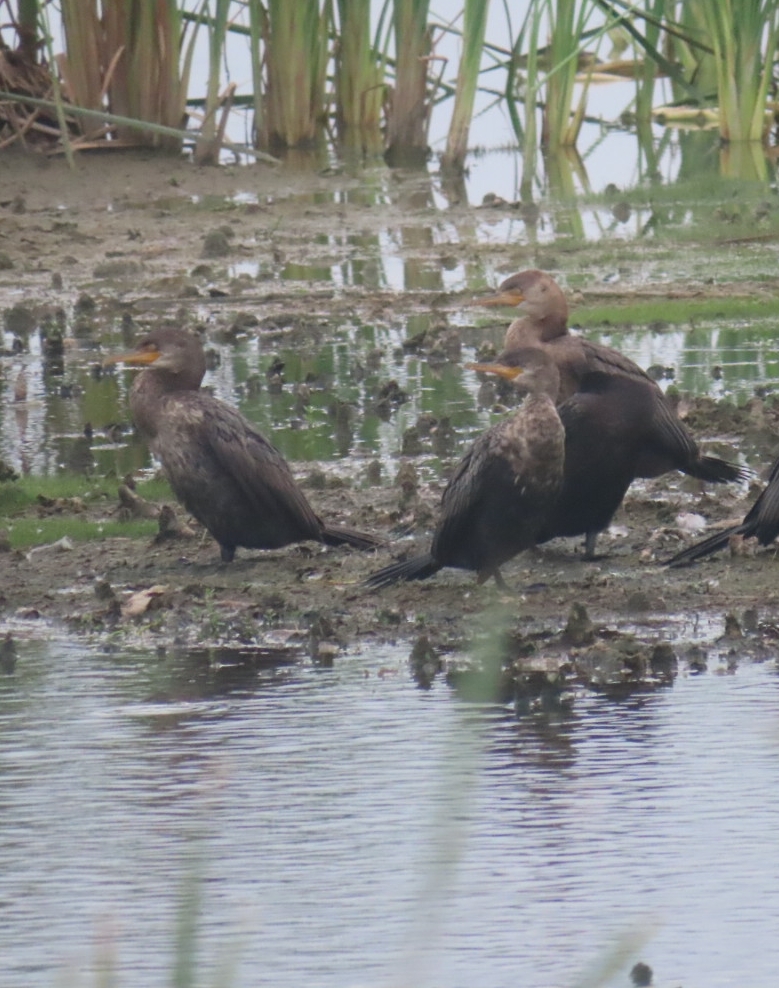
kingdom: Animalia
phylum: Chordata
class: Aves
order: Suliformes
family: Phalacrocoracidae
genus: Phalacrocorax
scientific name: Phalacrocorax brasilianus
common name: Neotropic cormorant
